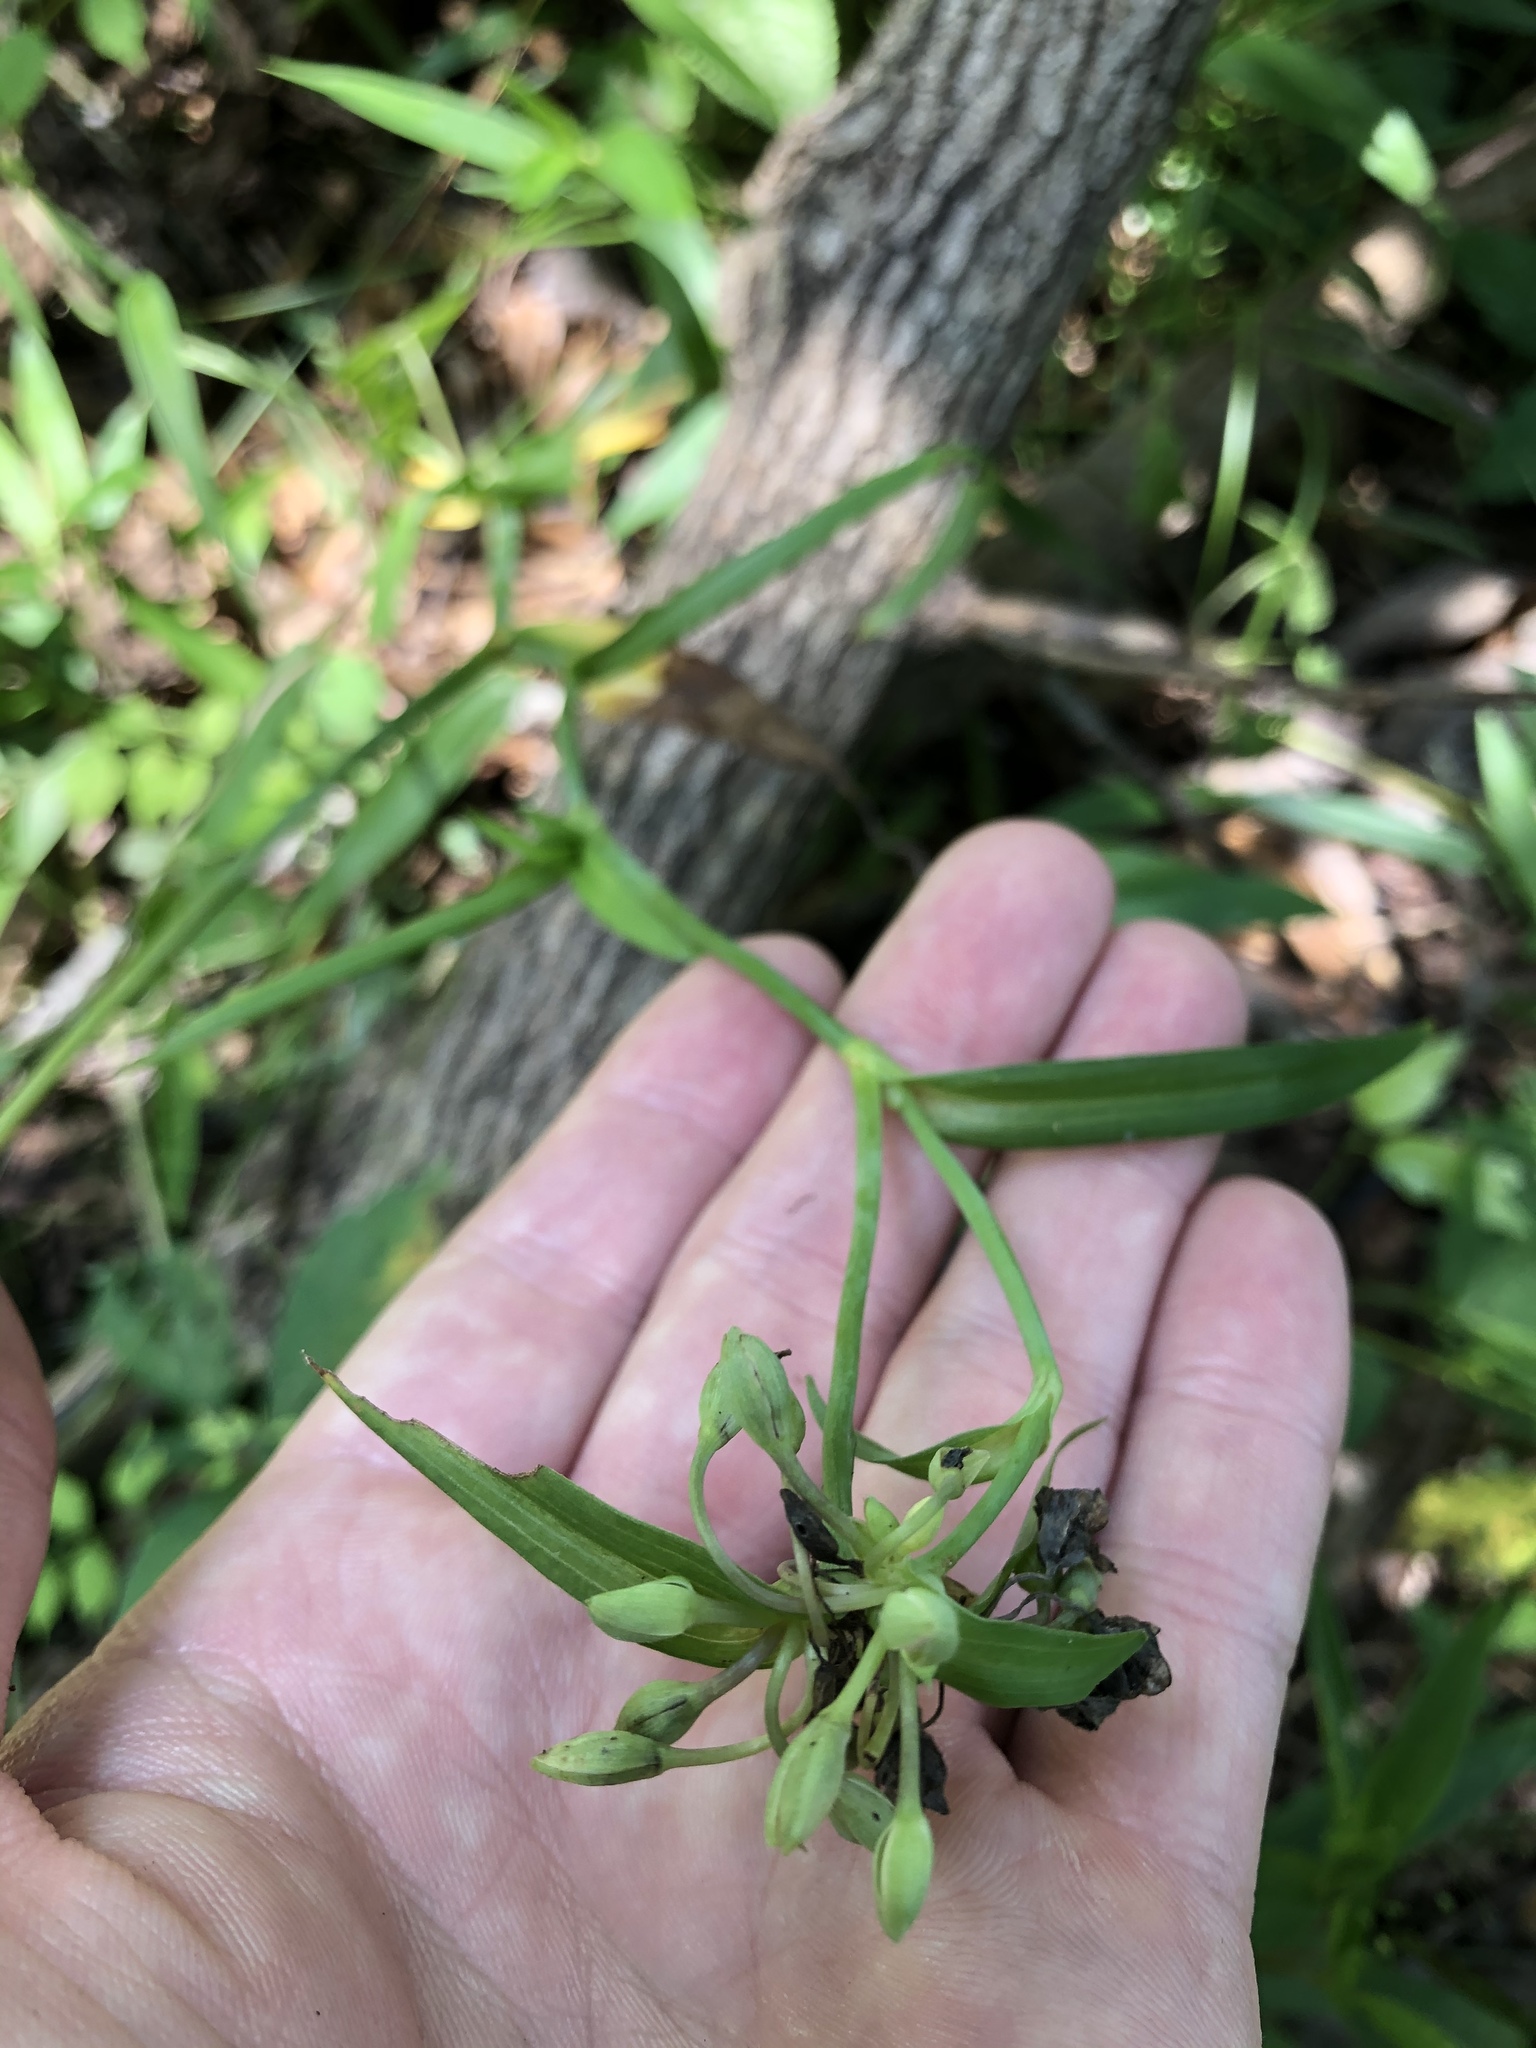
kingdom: Plantae
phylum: Tracheophyta
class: Liliopsida
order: Commelinales
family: Commelinaceae
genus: Tradescantia
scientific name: Tradescantia ohiensis
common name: Ohio spiderwort
